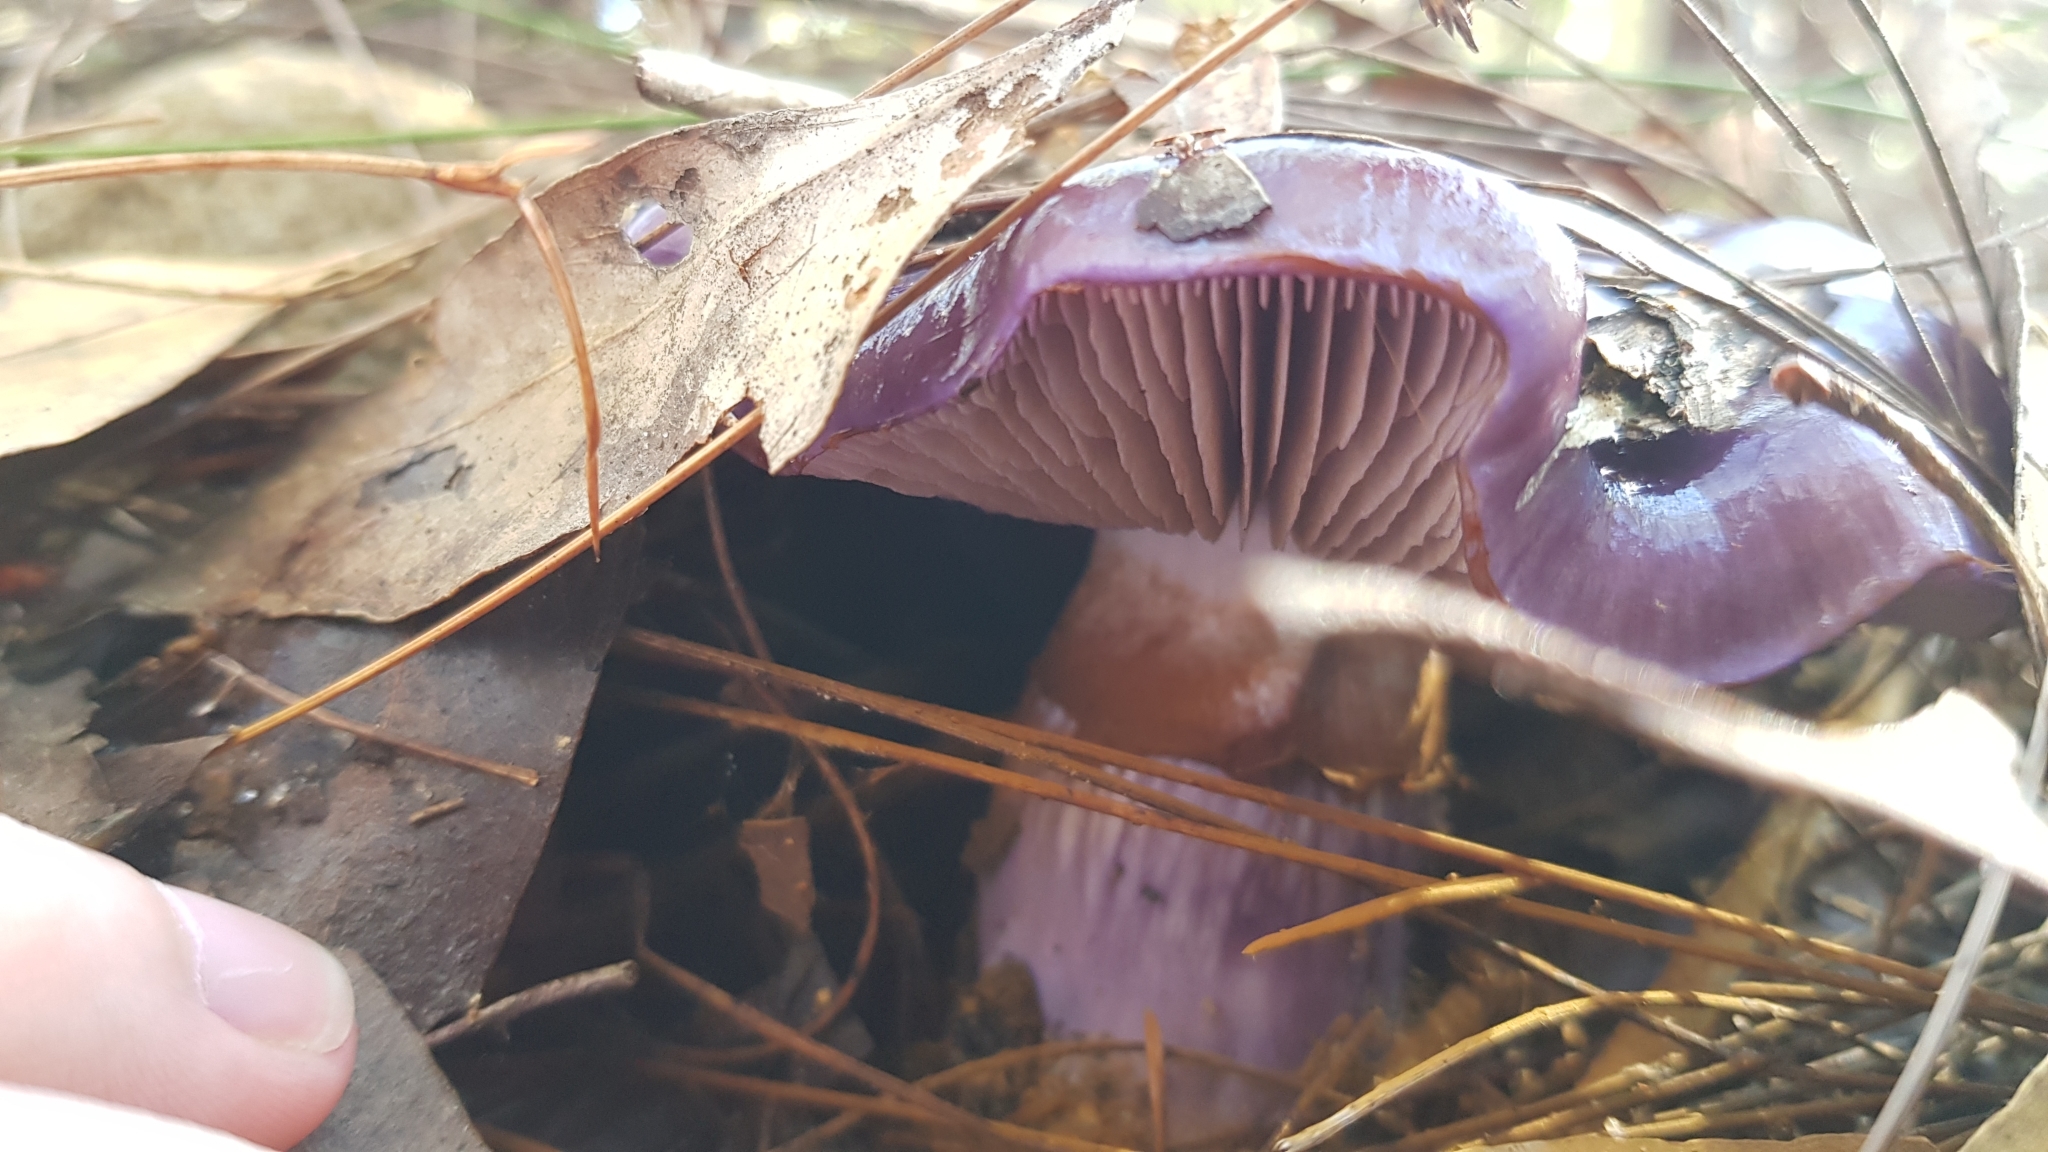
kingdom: Fungi
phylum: Basidiomycota
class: Agaricomycetes
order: Agaricales
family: Cortinariaceae
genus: Cortinarius
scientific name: Cortinarius archeri
